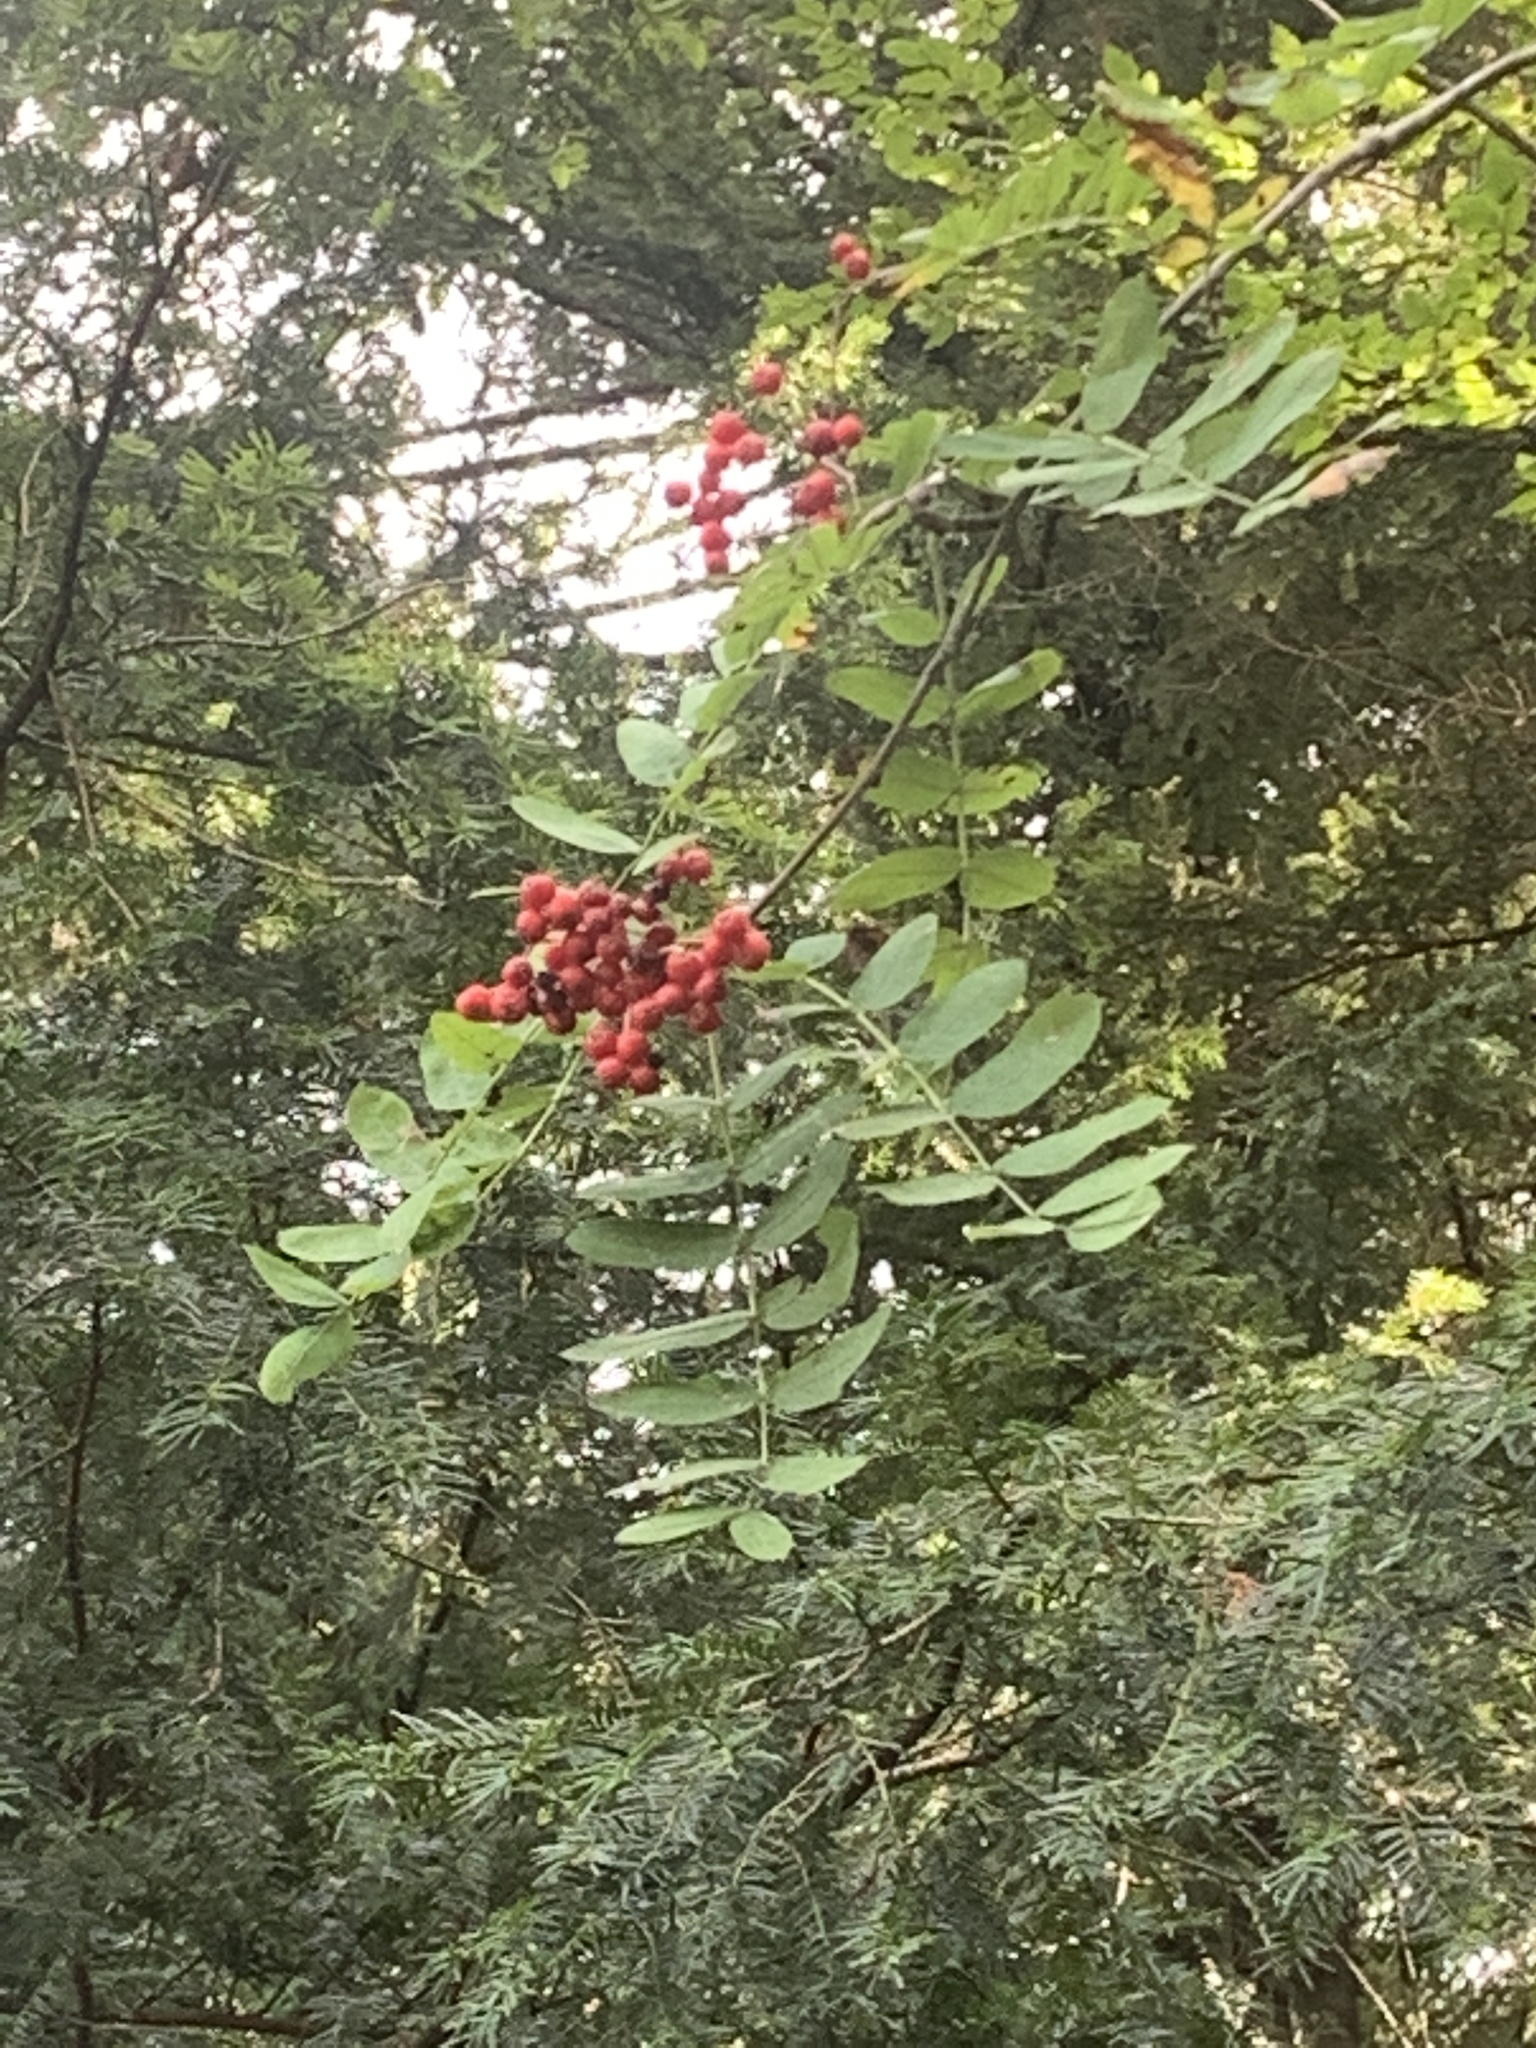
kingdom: Plantae
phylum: Tracheophyta
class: Magnoliopsida
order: Rosales
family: Rosaceae
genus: Sorbus
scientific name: Sorbus aucuparia
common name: Rowan
